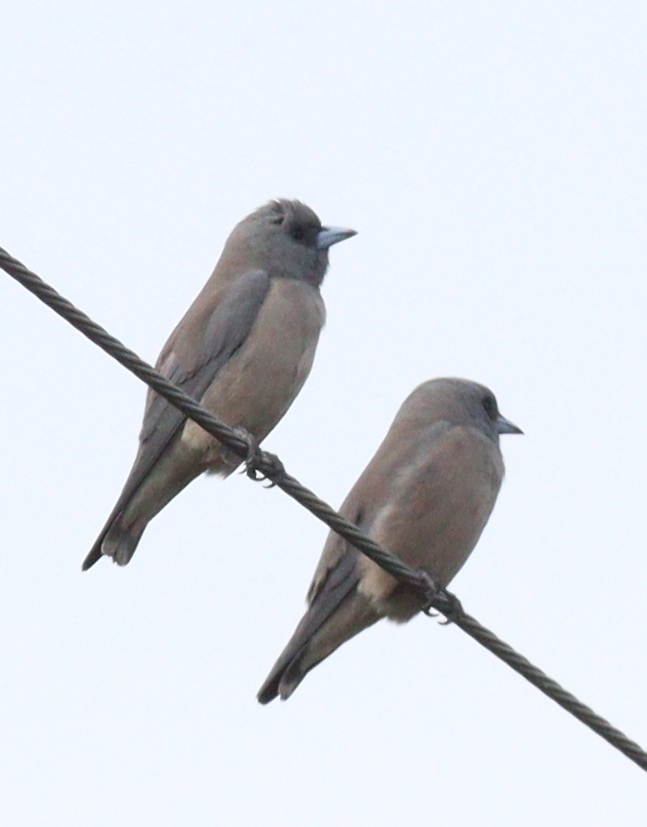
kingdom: Animalia
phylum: Chordata
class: Aves
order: Passeriformes
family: Artamidae
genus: Artamus
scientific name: Artamus fuscus
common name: Ashy woodswallow
